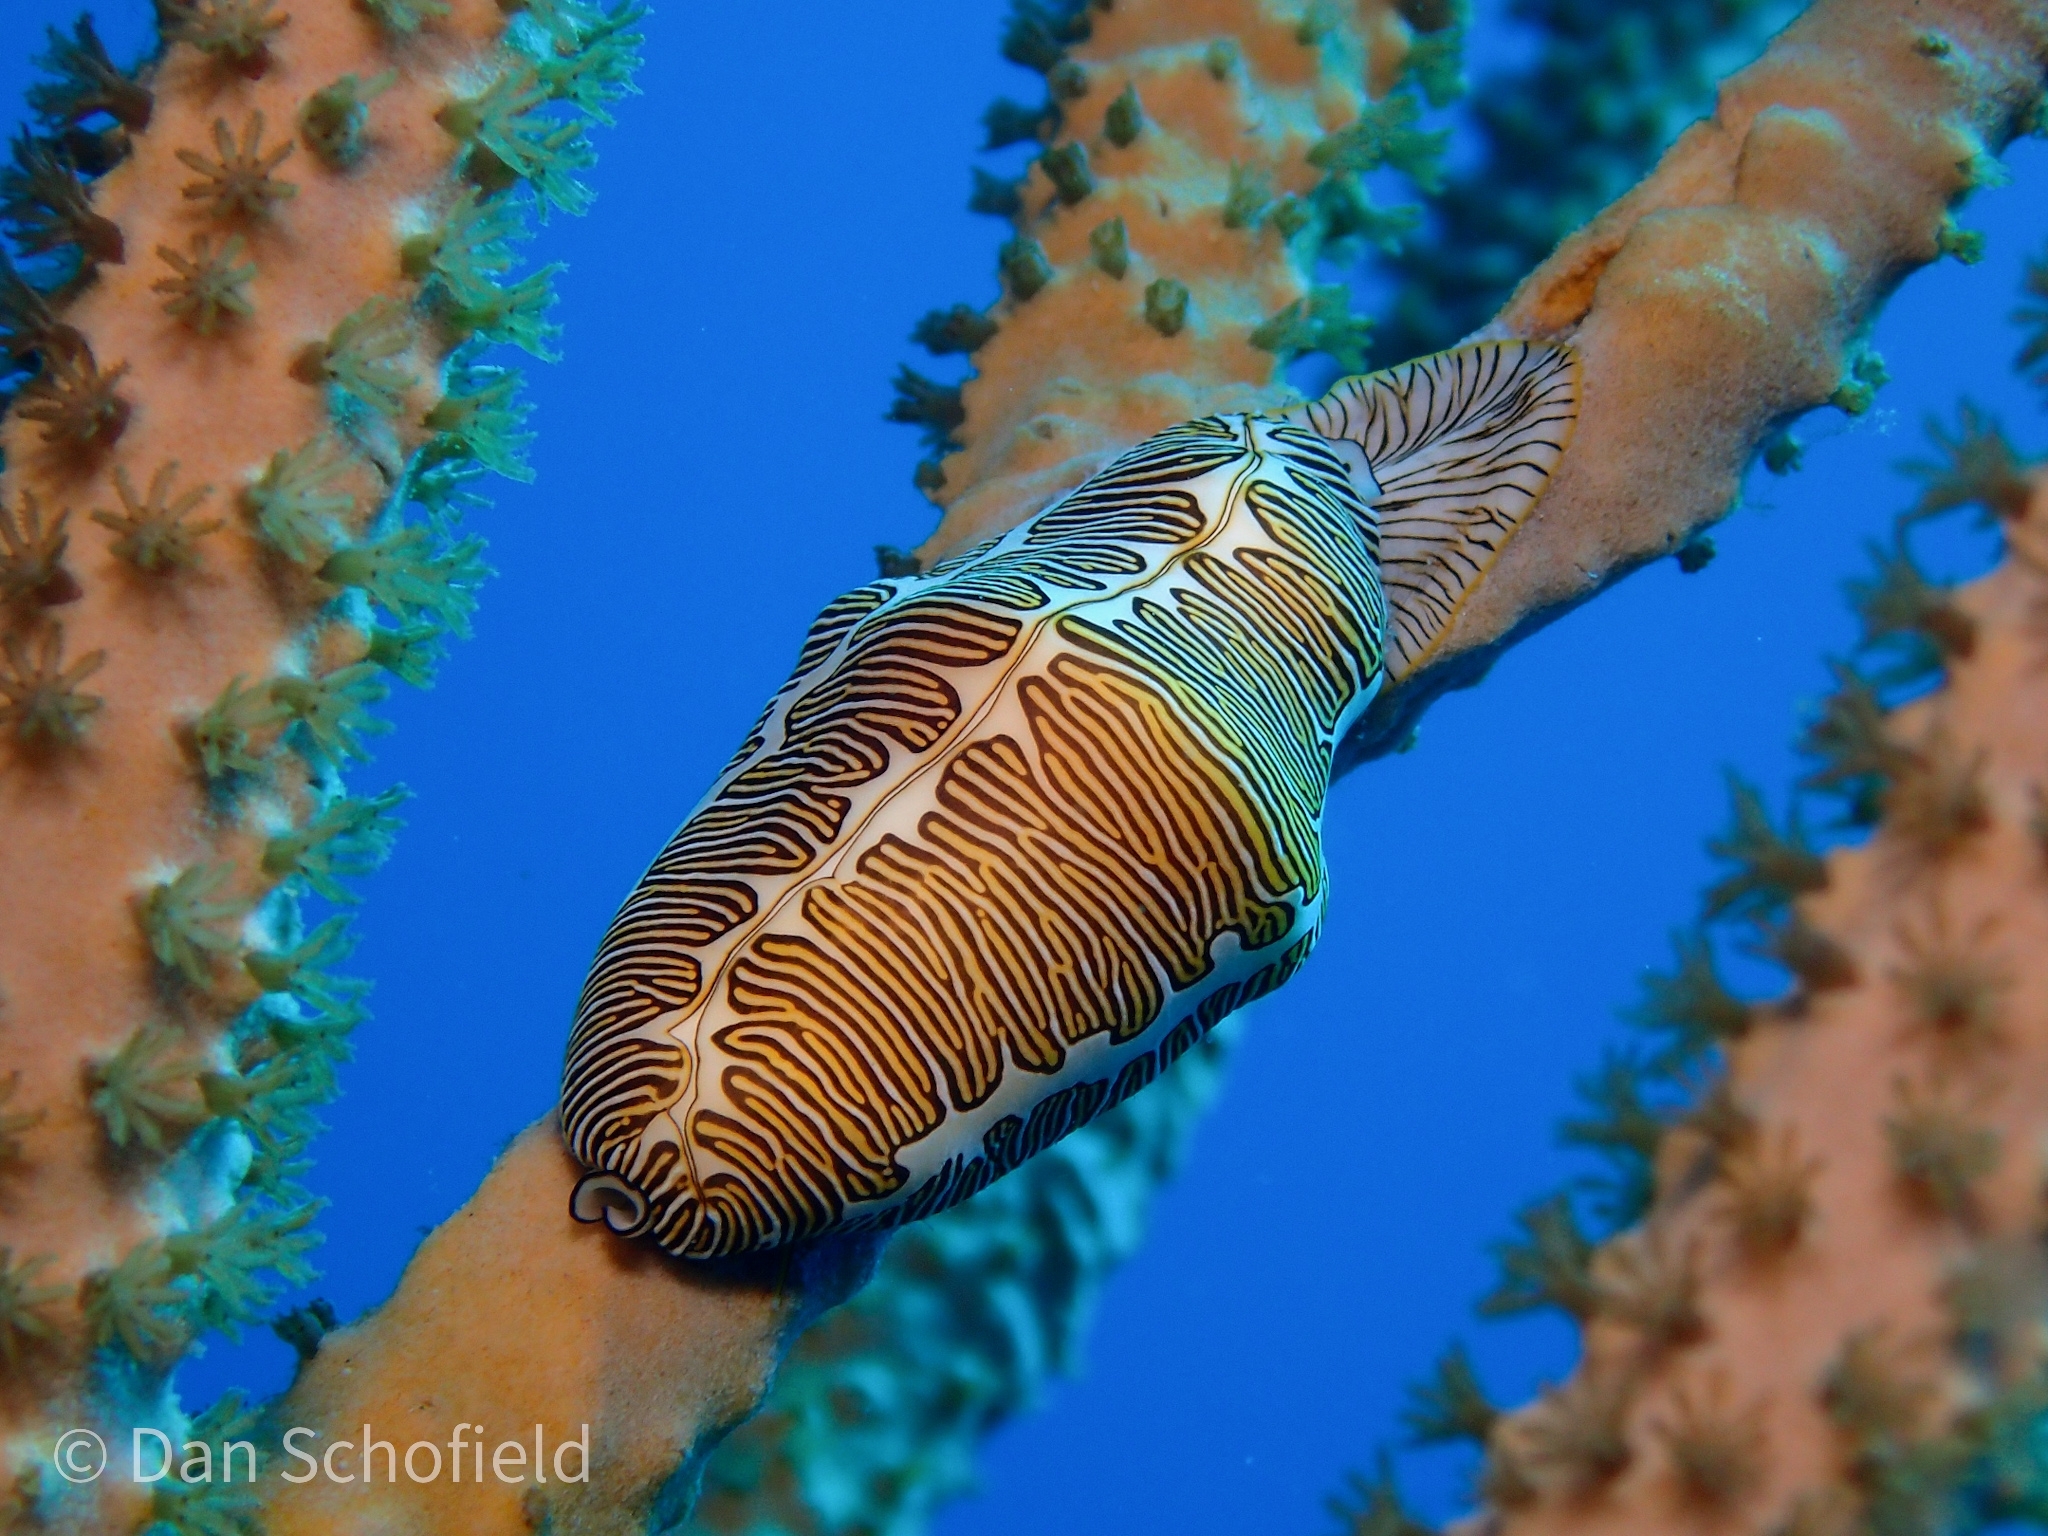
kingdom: Animalia
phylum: Mollusca
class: Gastropoda
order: Littorinimorpha
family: Ovulidae
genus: Cyphoma
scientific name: Cyphoma signatum
